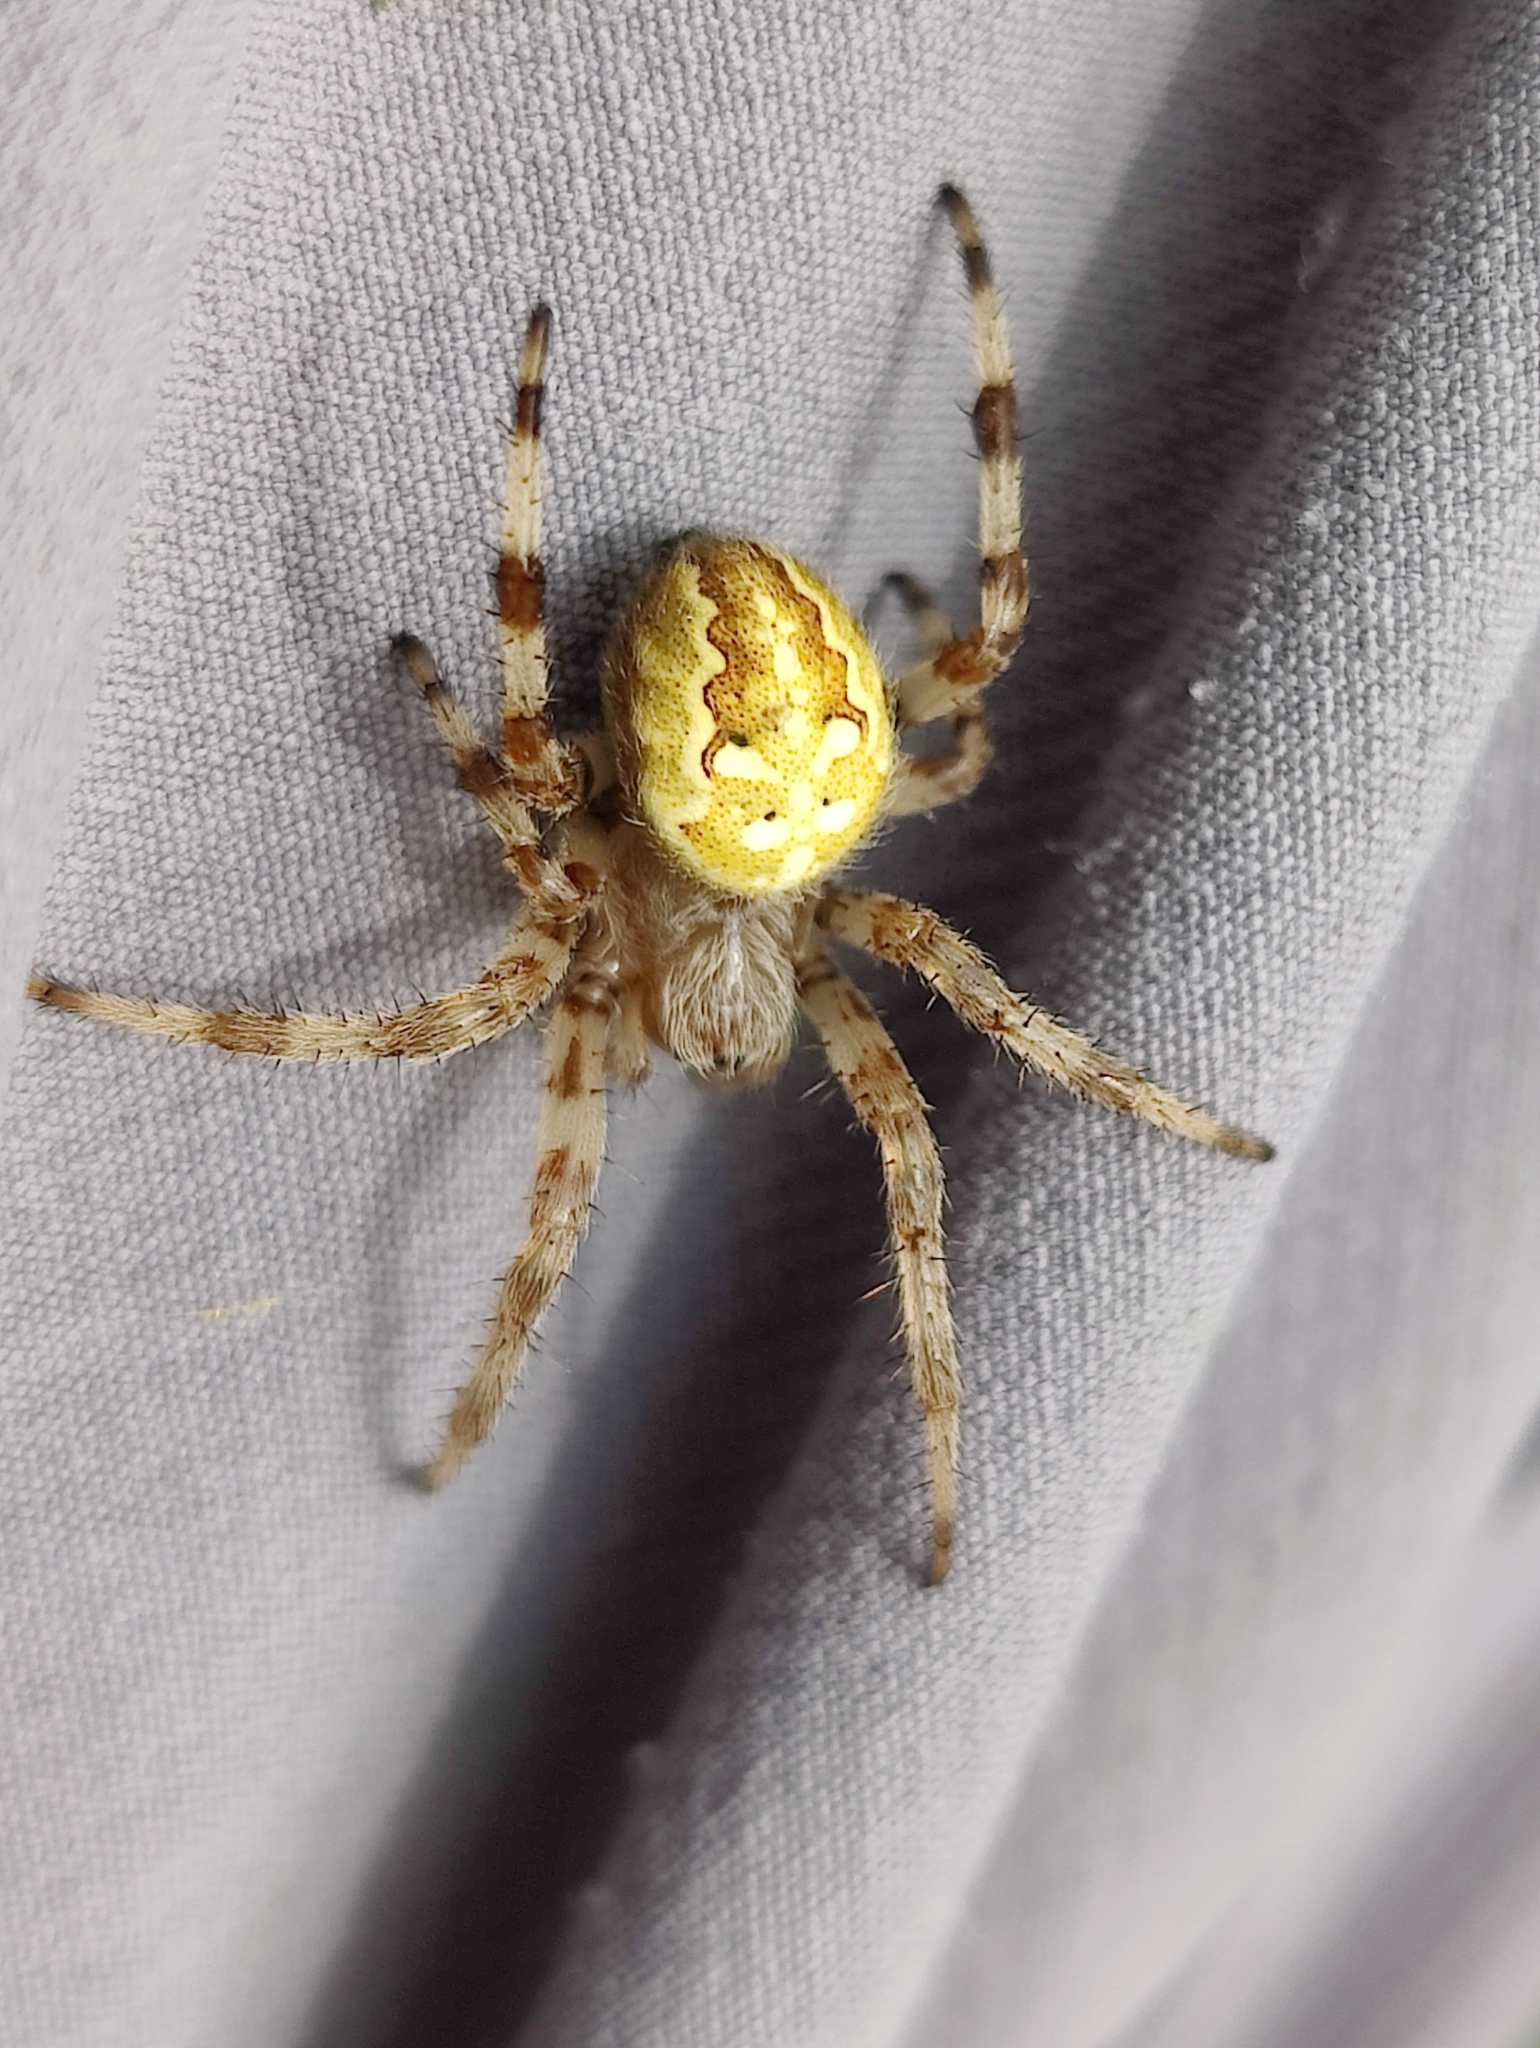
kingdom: Animalia
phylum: Arthropoda
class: Arachnida
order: Araneae
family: Araneidae
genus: Araneus
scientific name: Araneus quadratus
